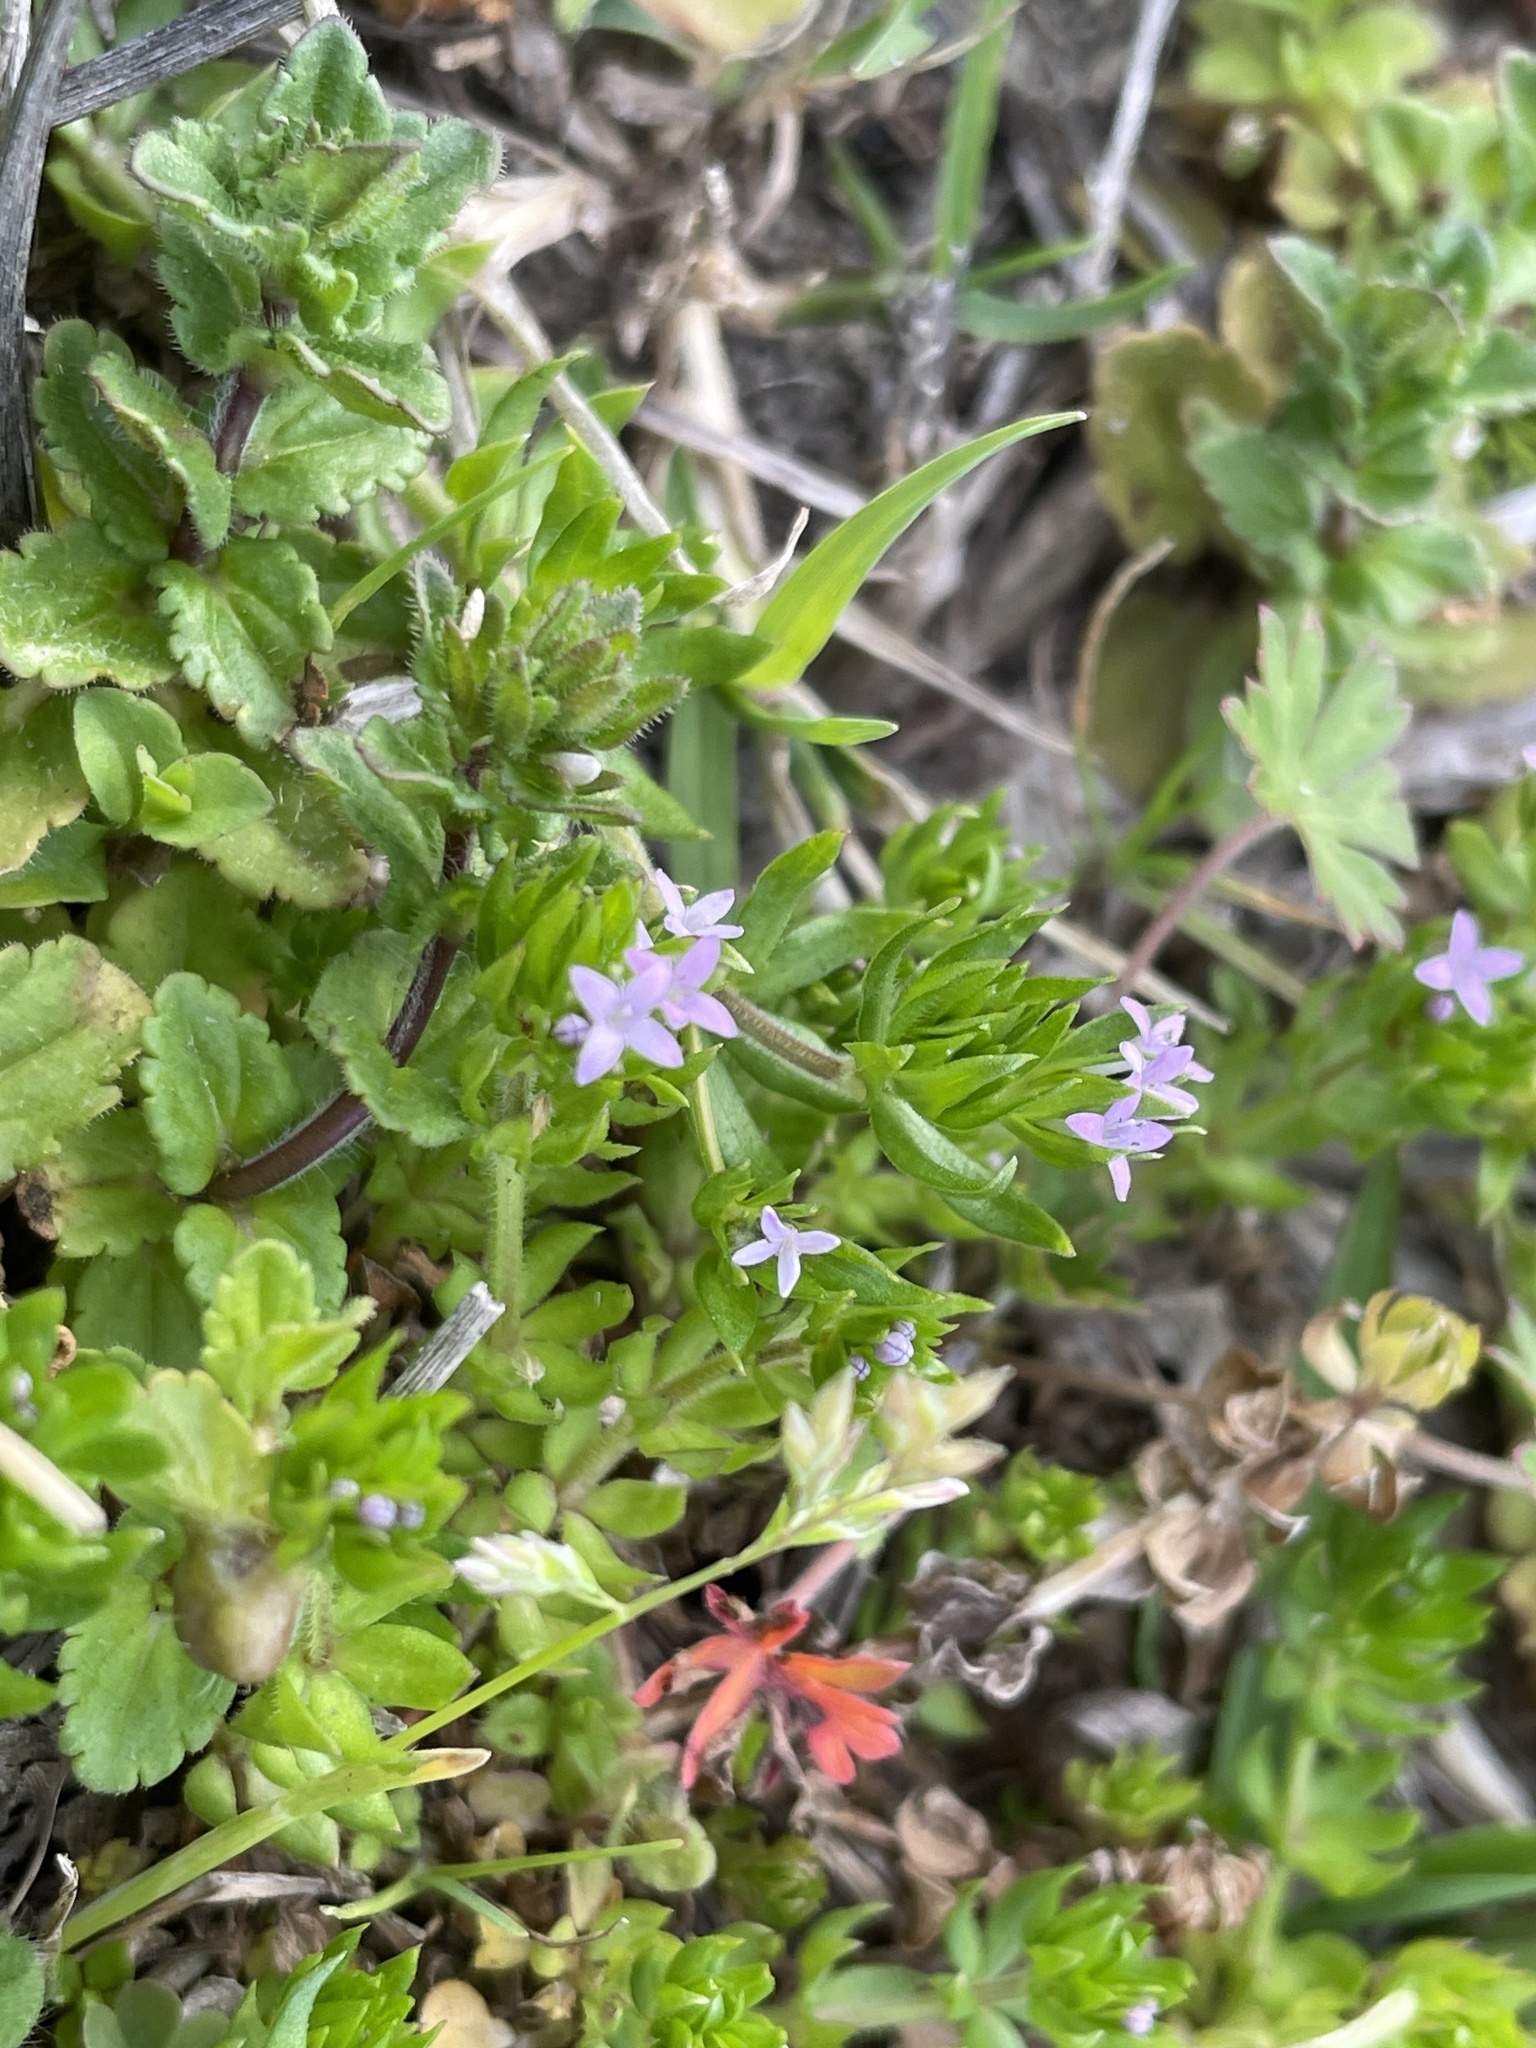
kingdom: Plantae
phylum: Tracheophyta
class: Magnoliopsida
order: Gentianales
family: Rubiaceae
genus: Sherardia
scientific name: Sherardia arvensis
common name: Field madder
